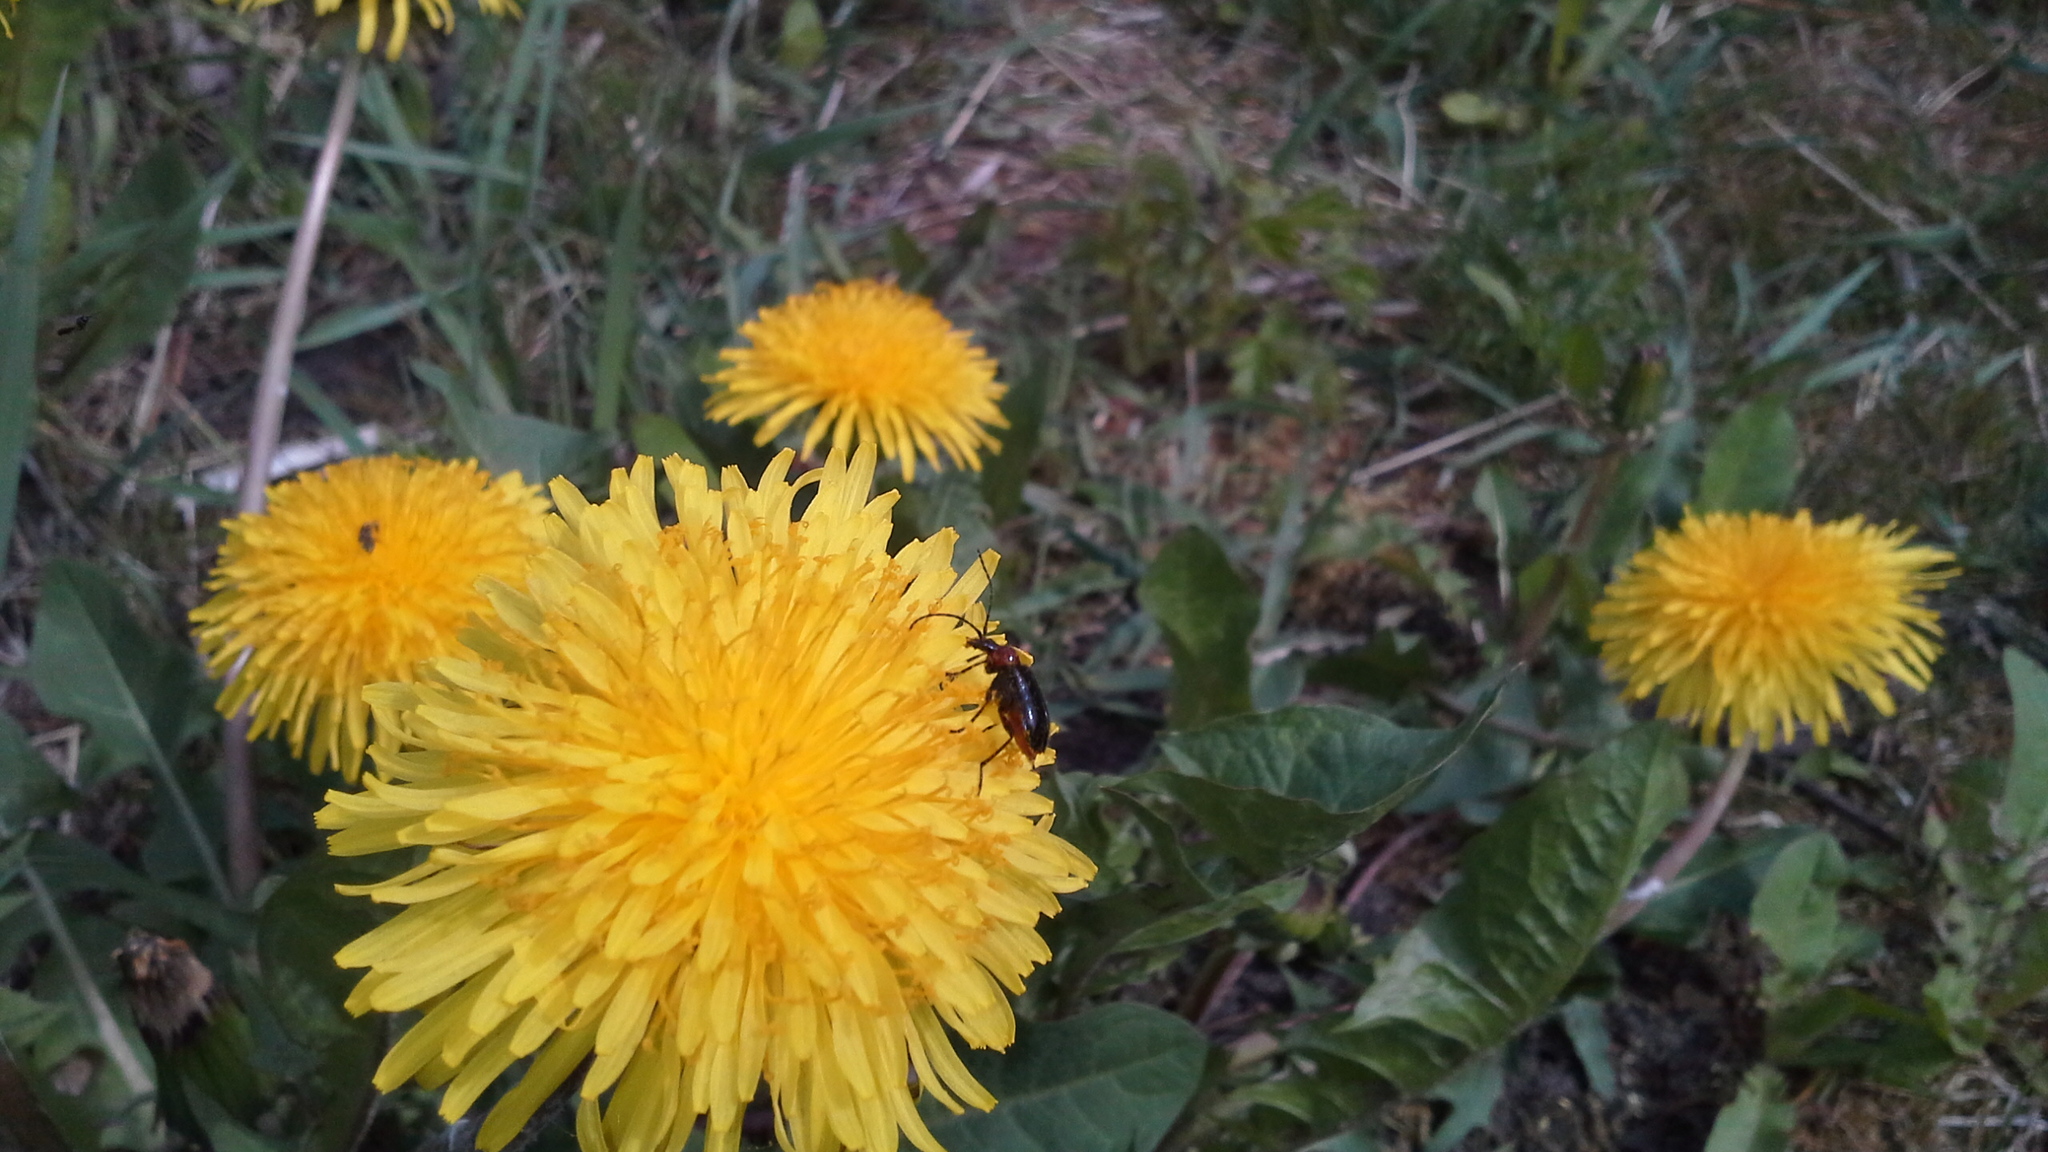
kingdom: Animalia
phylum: Arthropoda
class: Insecta
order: Coleoptera
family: Cerambycidae
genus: Dinoptera
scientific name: Dinoptera collaris
